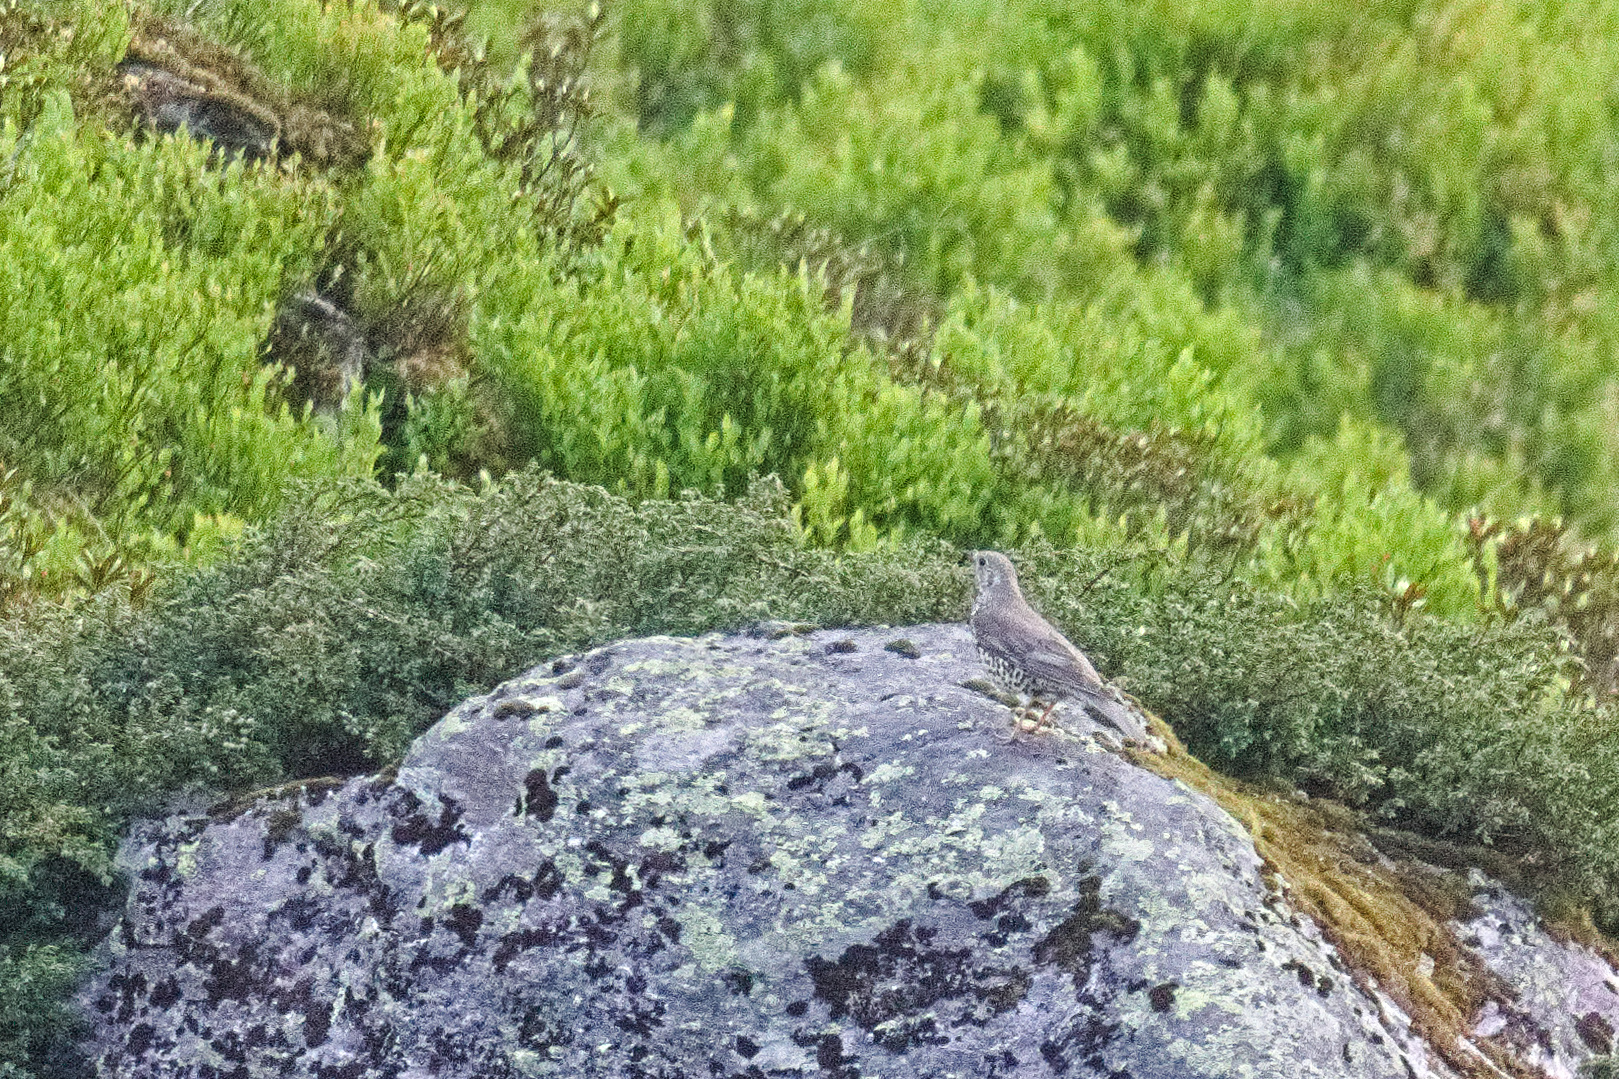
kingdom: Animalia
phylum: Chordata
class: Aves
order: Passeriformes
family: Turdidae
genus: Turdus
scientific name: Turdus viscivorus
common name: Mistle thrush
